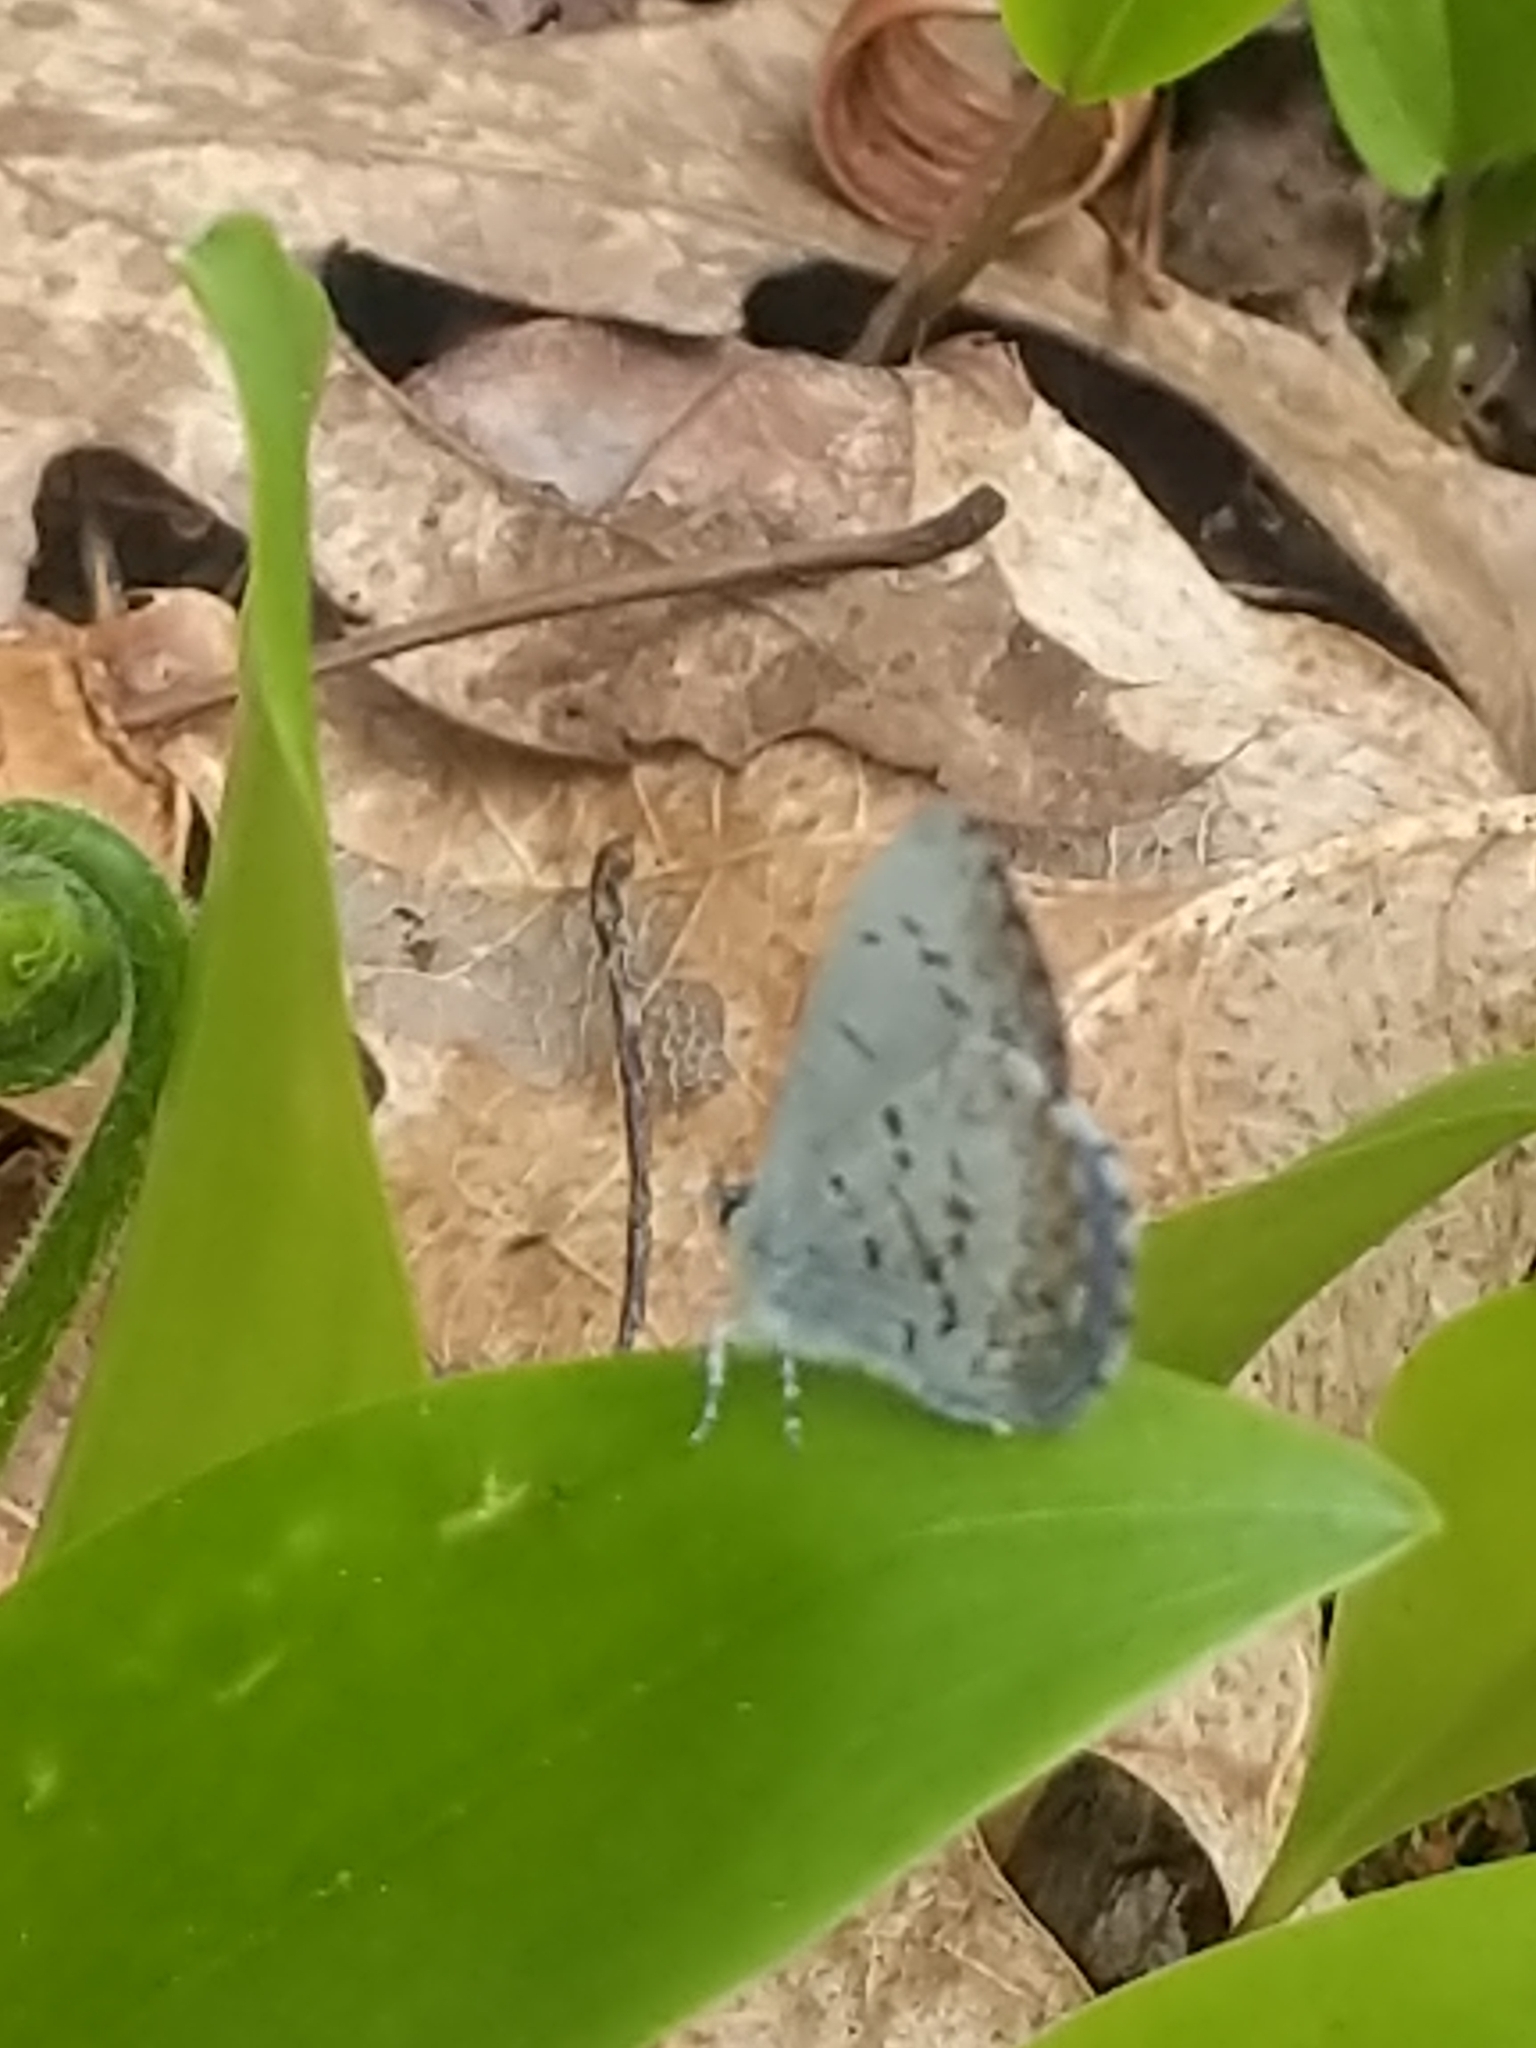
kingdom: Animalia
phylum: Arthropoda
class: Insecta
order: Lepidoptera
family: Lycaenidae
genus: Celastrina
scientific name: Celastrina lucia
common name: Lucia azure
